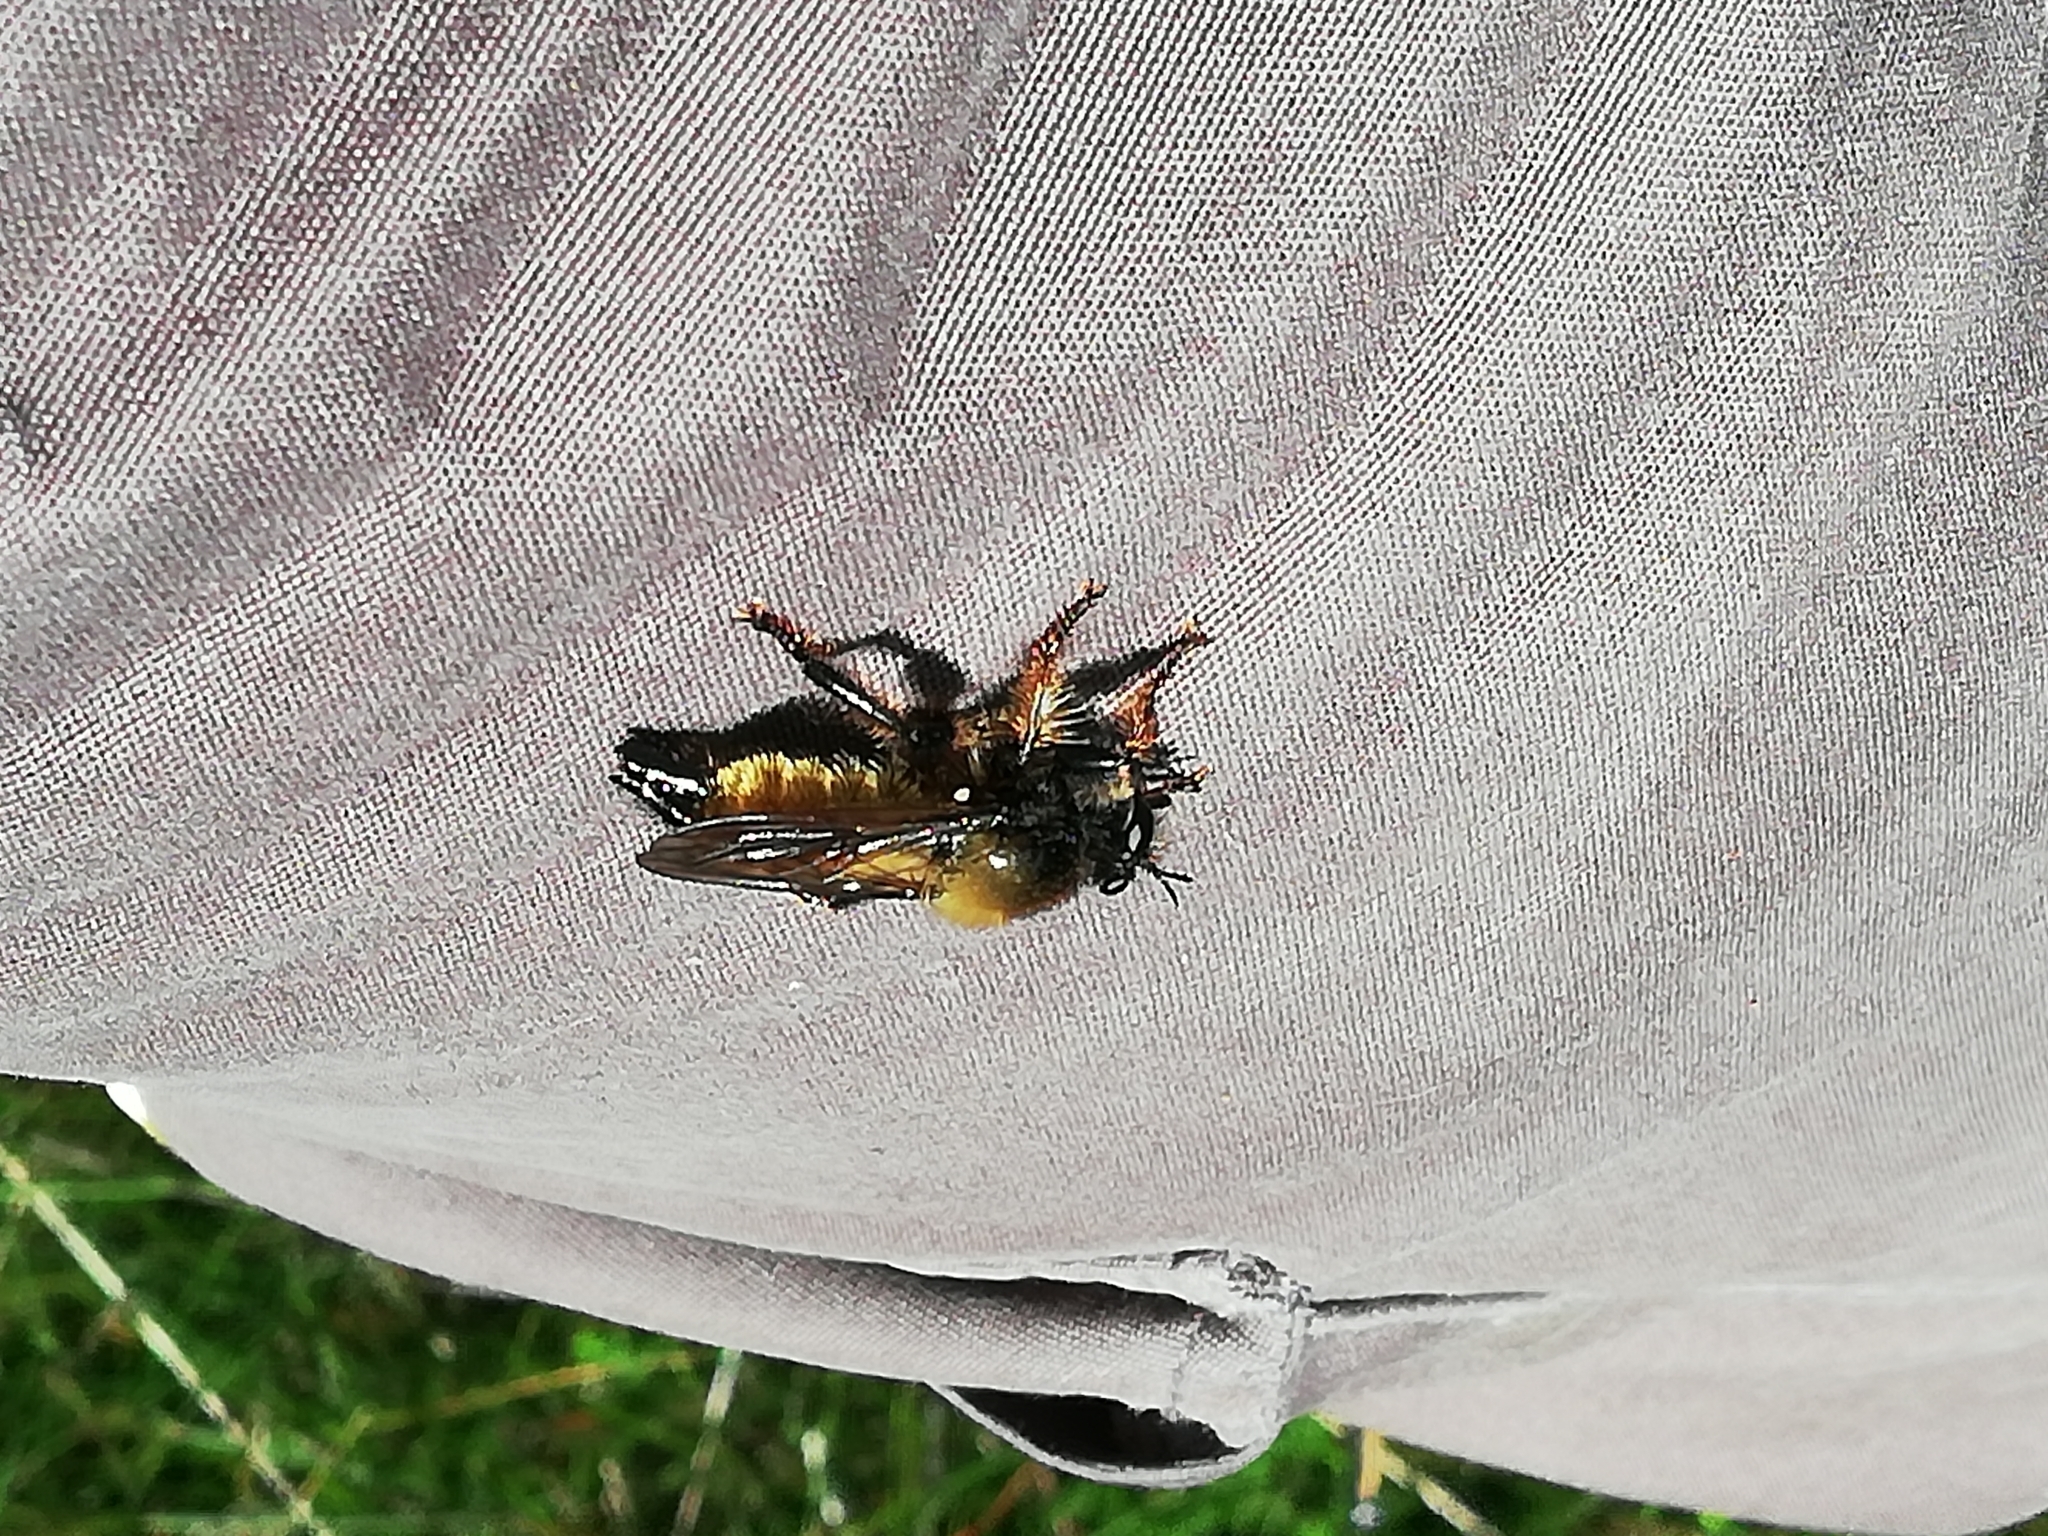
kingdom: Animalia
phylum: Arthropoda
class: Insecta
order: Diptera
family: Asilidae
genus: Laphria
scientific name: Laphria flava
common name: Bumblebee robberfly
